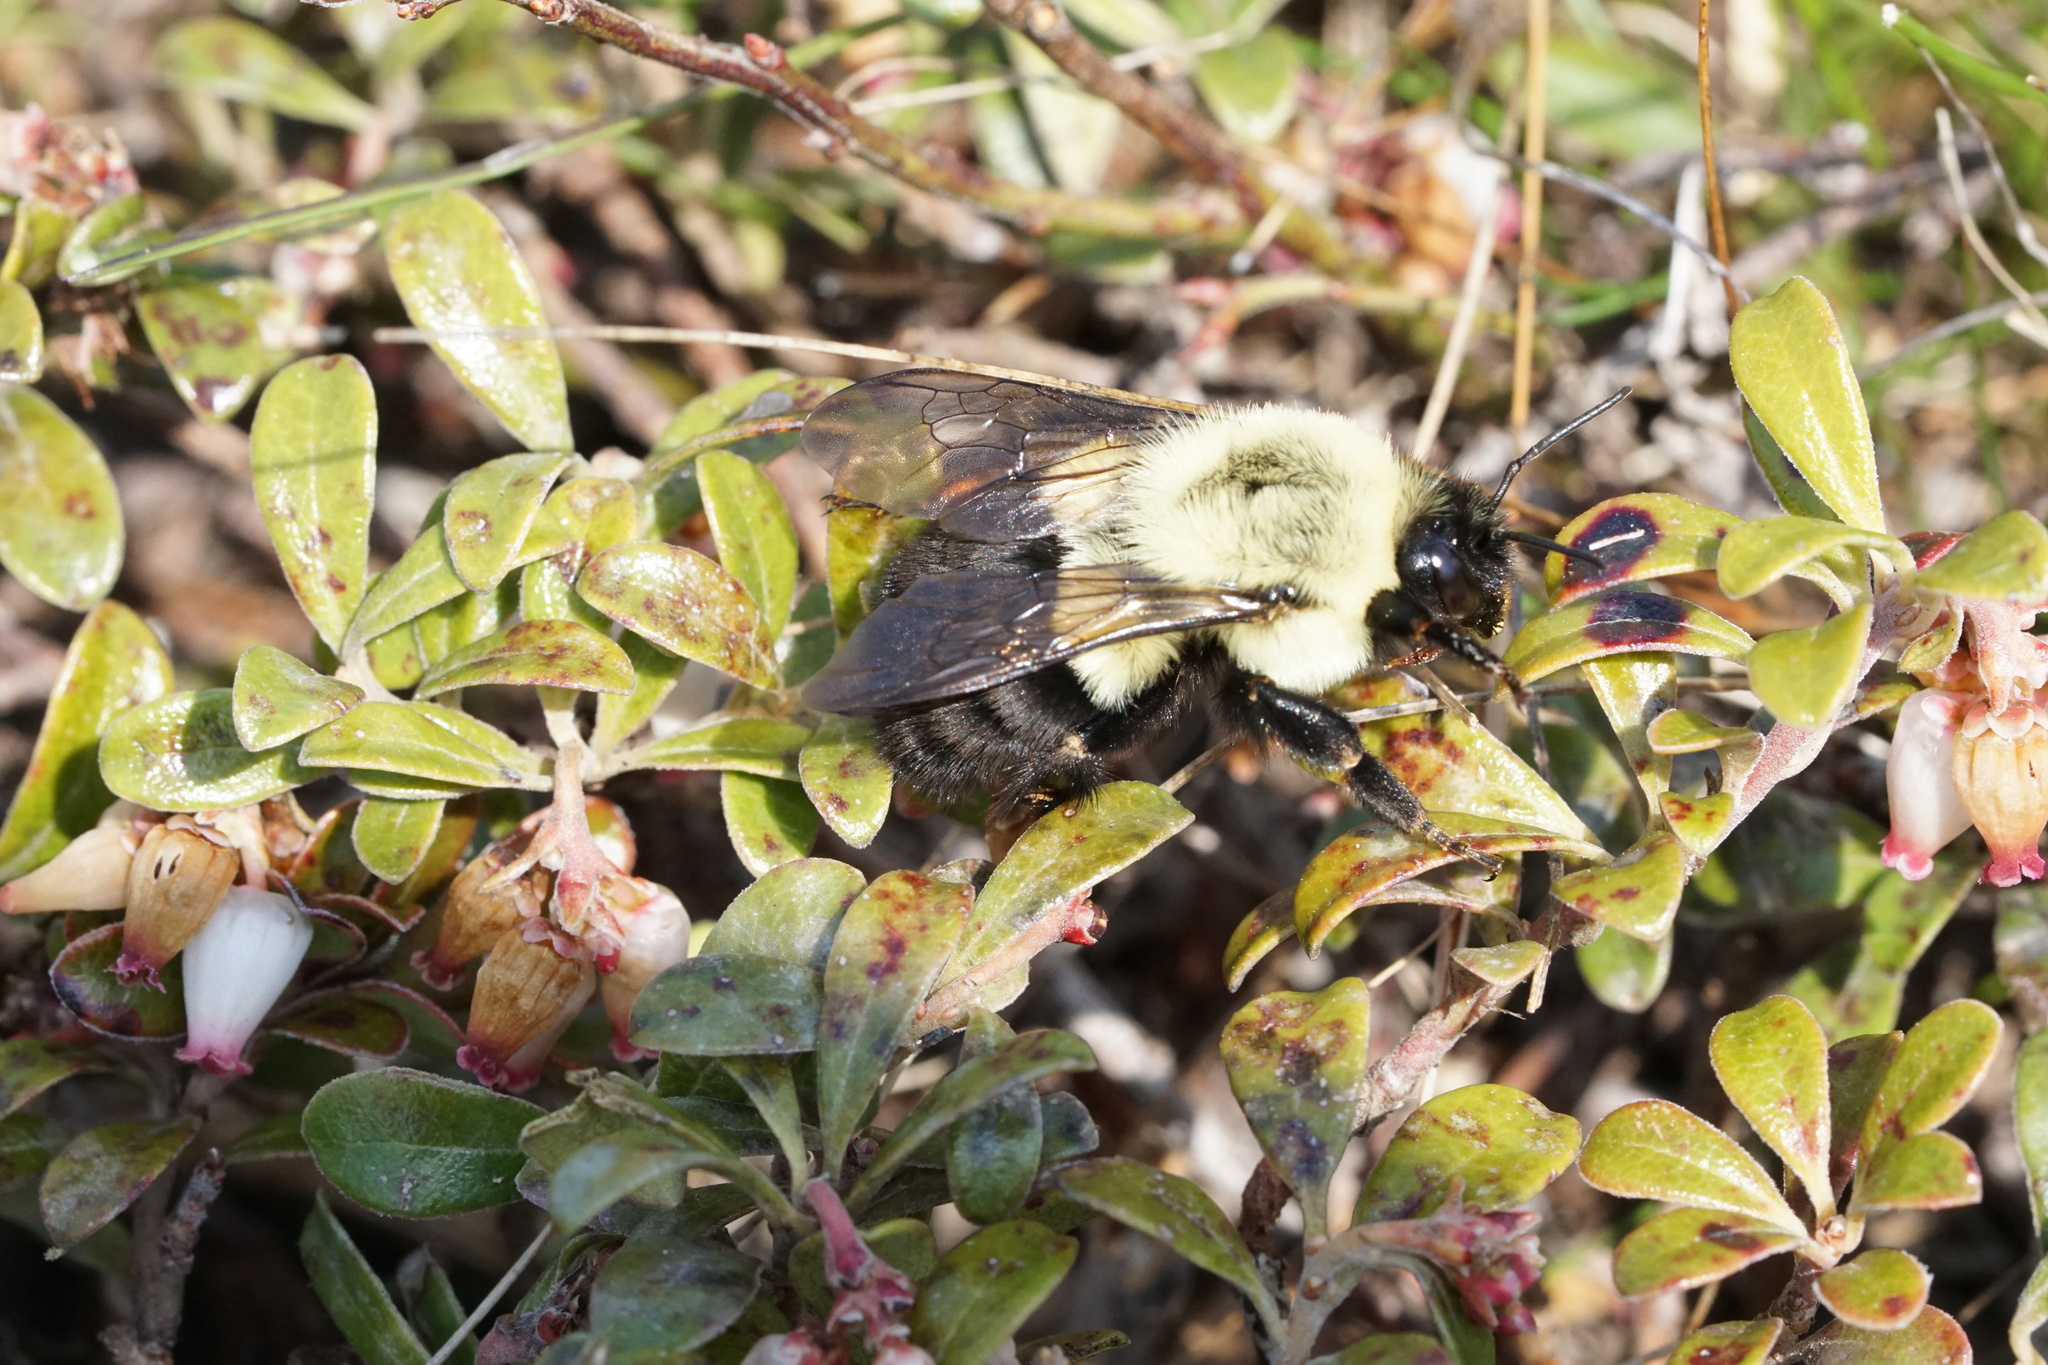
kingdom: Animalia
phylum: Arthropoda
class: Insecta
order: Hymenoptera
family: Apidae
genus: Bombus
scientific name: Bombus impatiens
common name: Common eastern bumble bee
